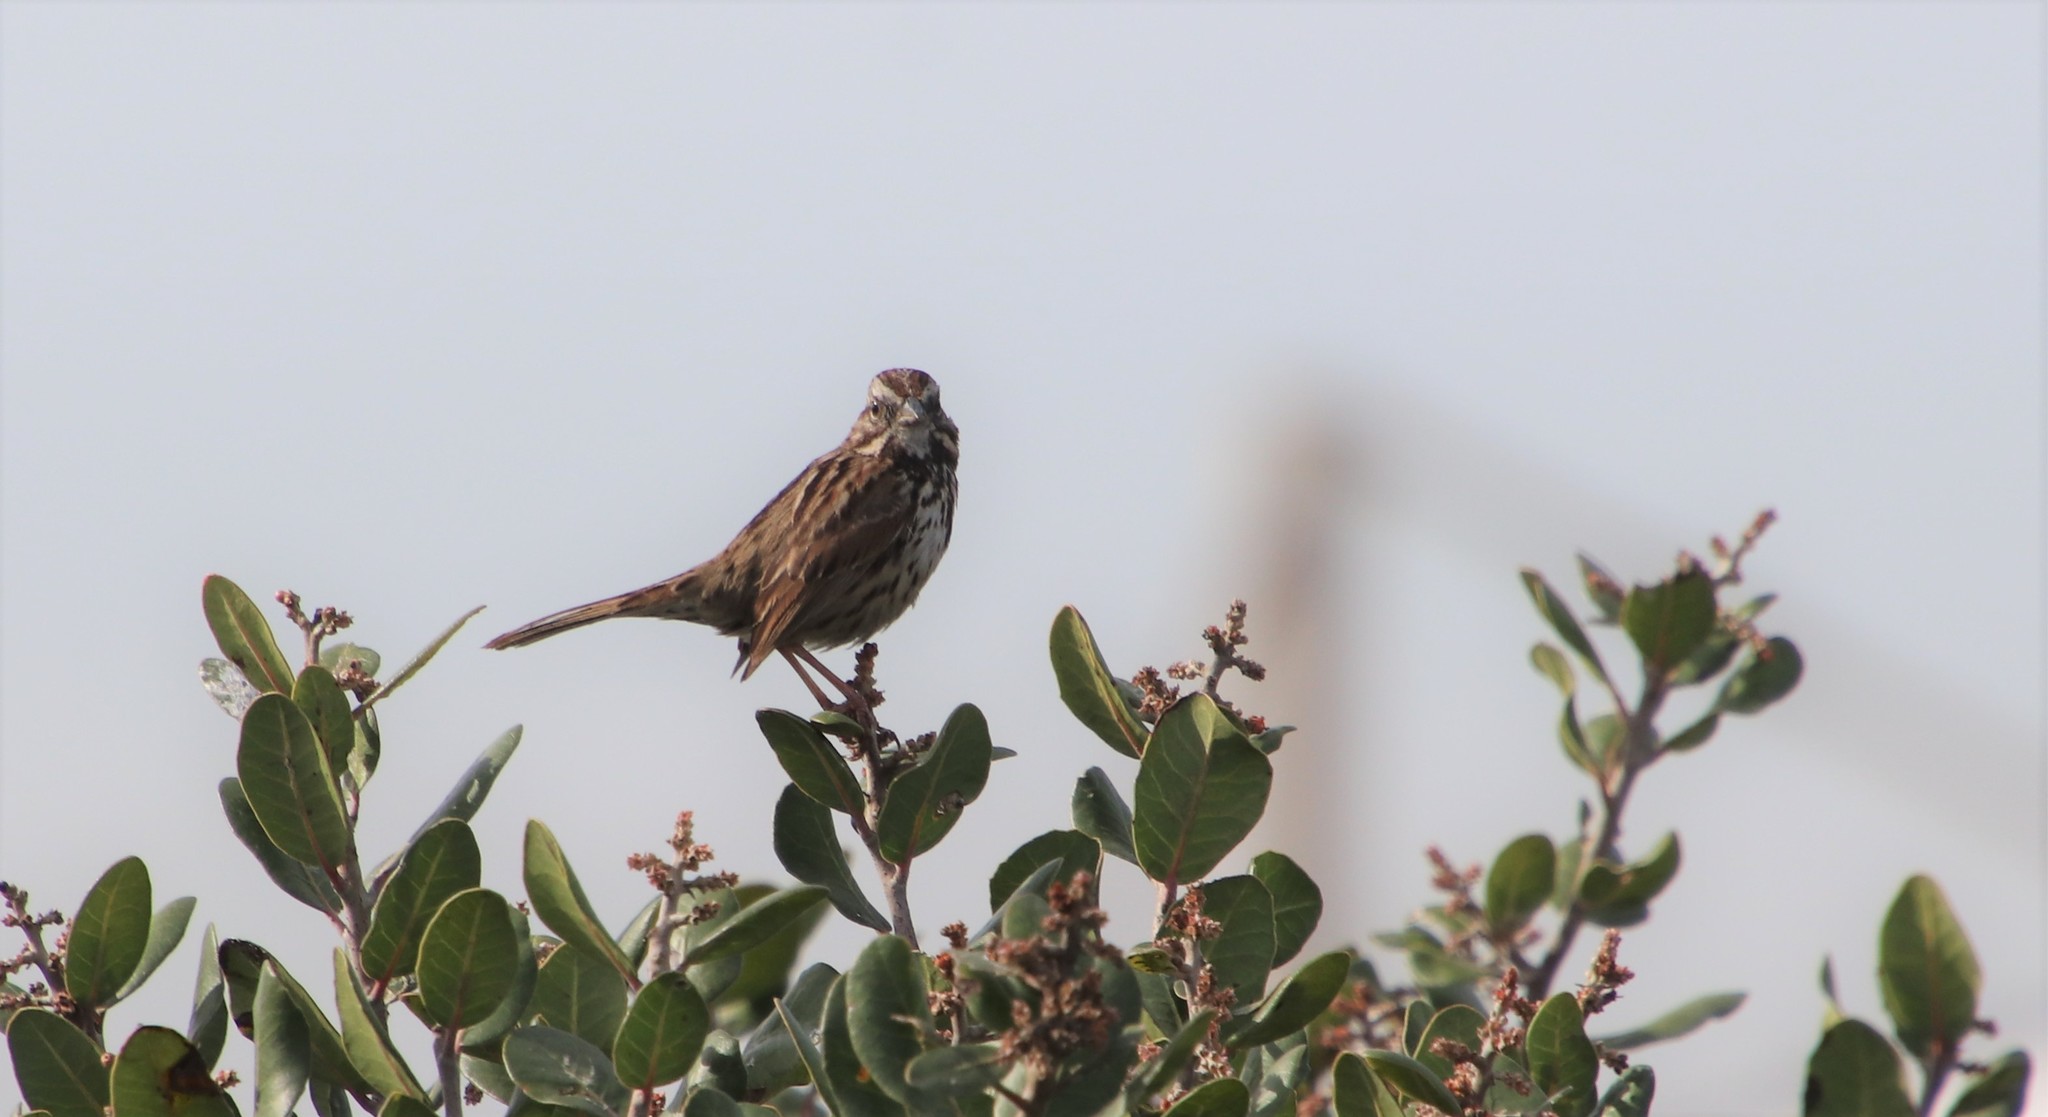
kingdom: Animalia
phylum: Chordata
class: Aves
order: Passeriformes
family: Passerellidae
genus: Melospiza
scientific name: Melospiza melodia
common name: Song sparrow
